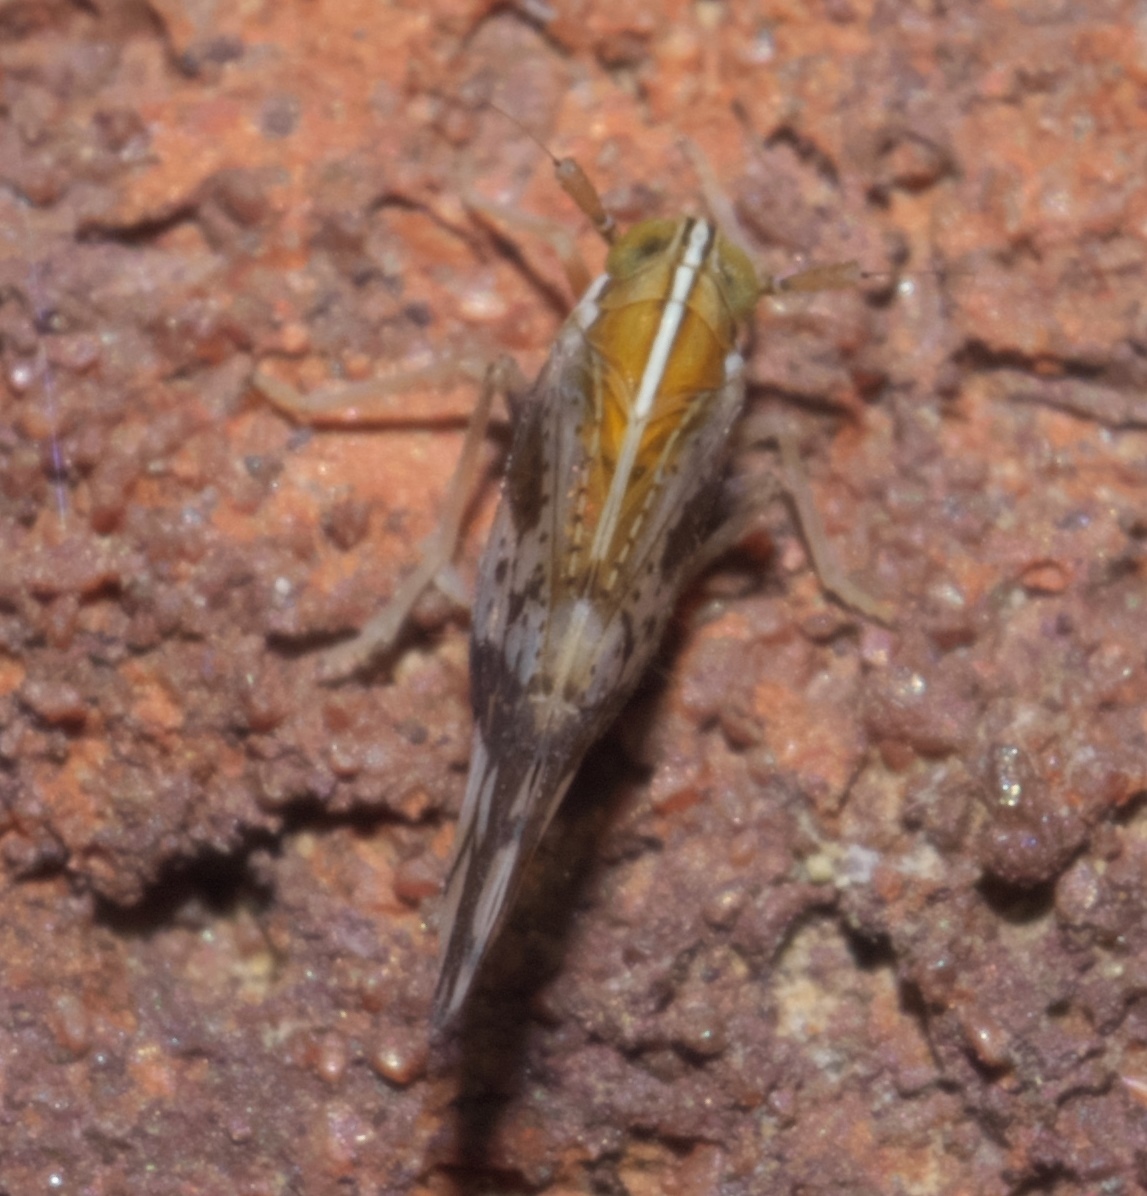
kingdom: Animalia
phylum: Arthropoda
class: Insecta
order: Hemiptera
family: Delphacidae
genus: Liburniella
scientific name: Liburniella ornata
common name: Ornate planthopper
